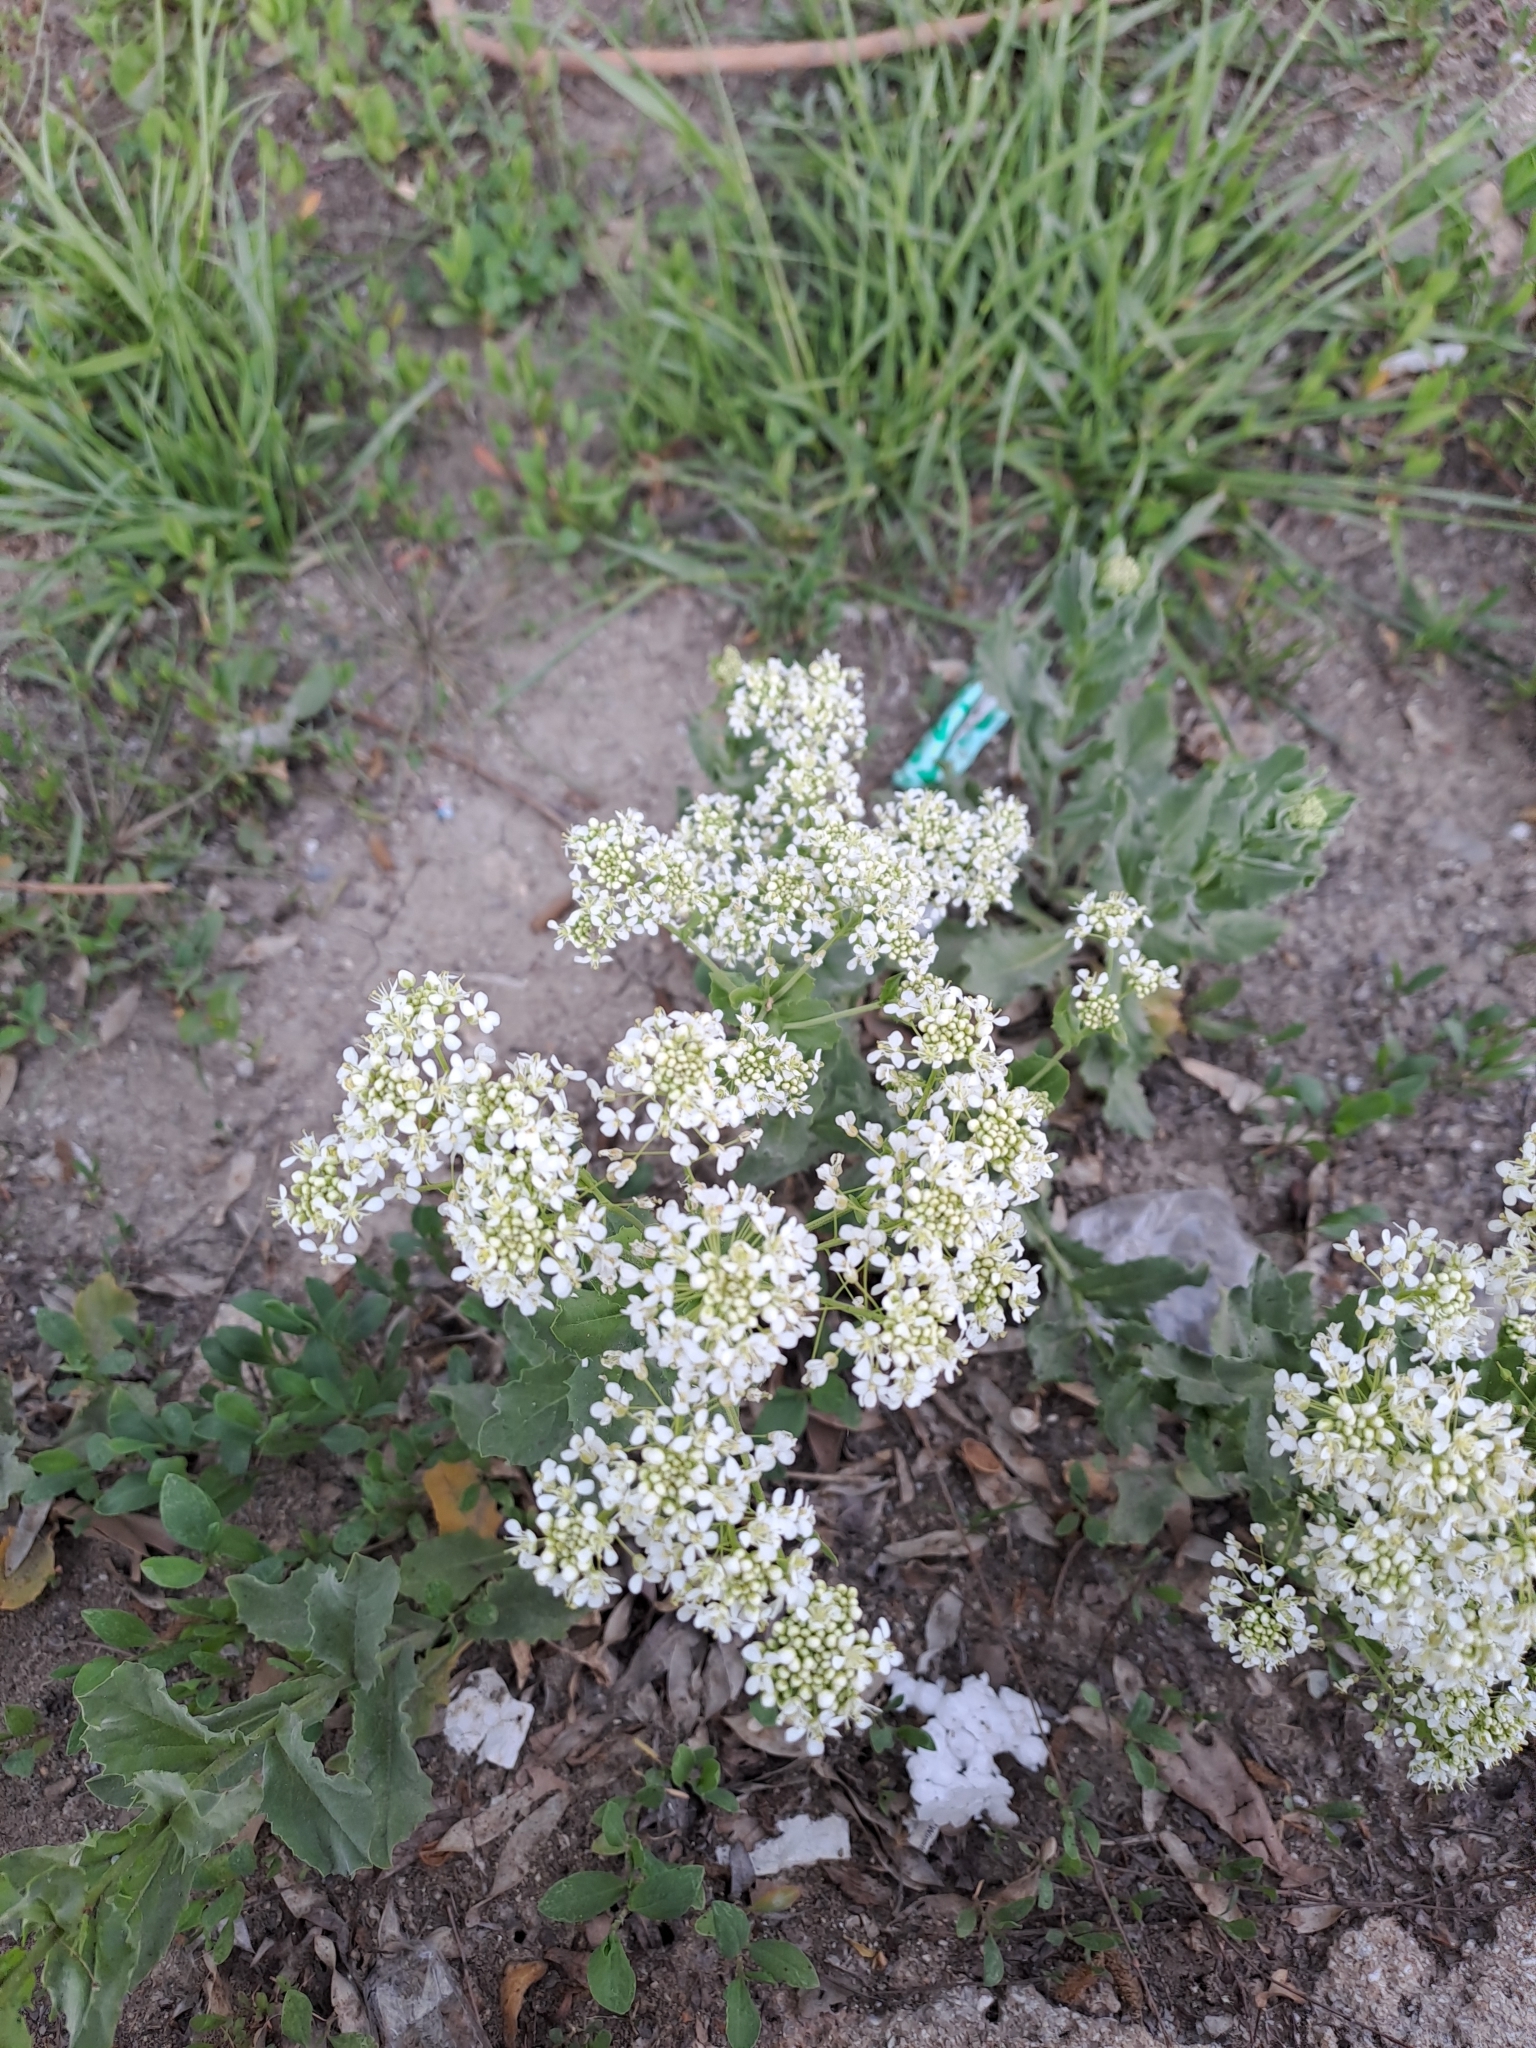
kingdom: Plantae
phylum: Tracheophyta
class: Magnoliopsida
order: Brassicales
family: Brassicaceae
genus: Lepidium
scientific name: Lepidium draba
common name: Hoary cress
